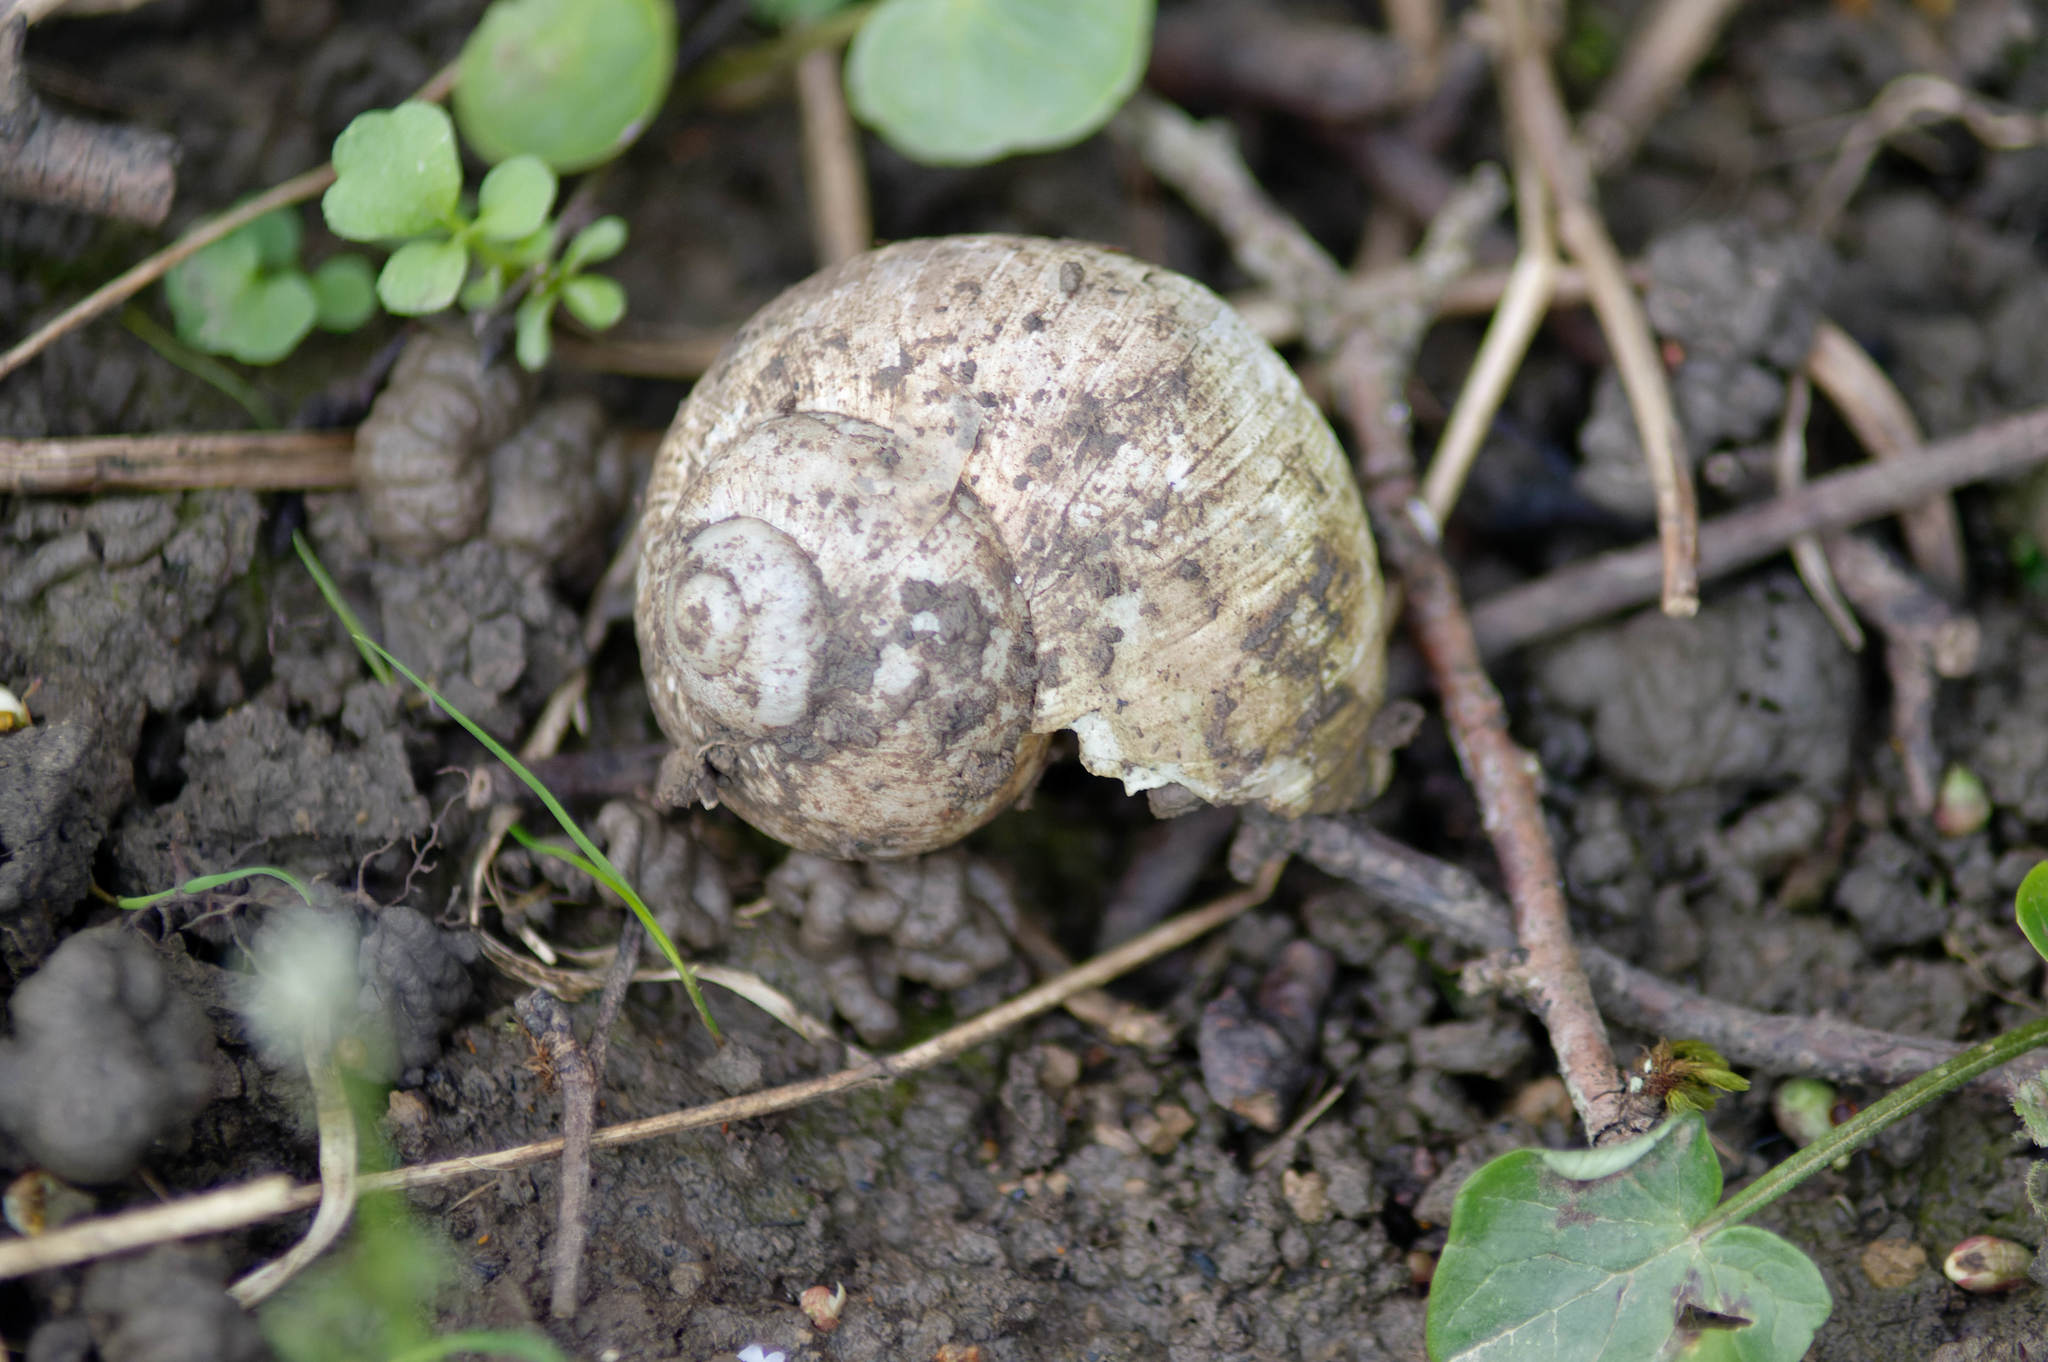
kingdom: Animalia
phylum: Mollusca
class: Gastropoda
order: Stylommatophora
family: Helicidae
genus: Helix
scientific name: Helix pomatia
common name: Roman snail
